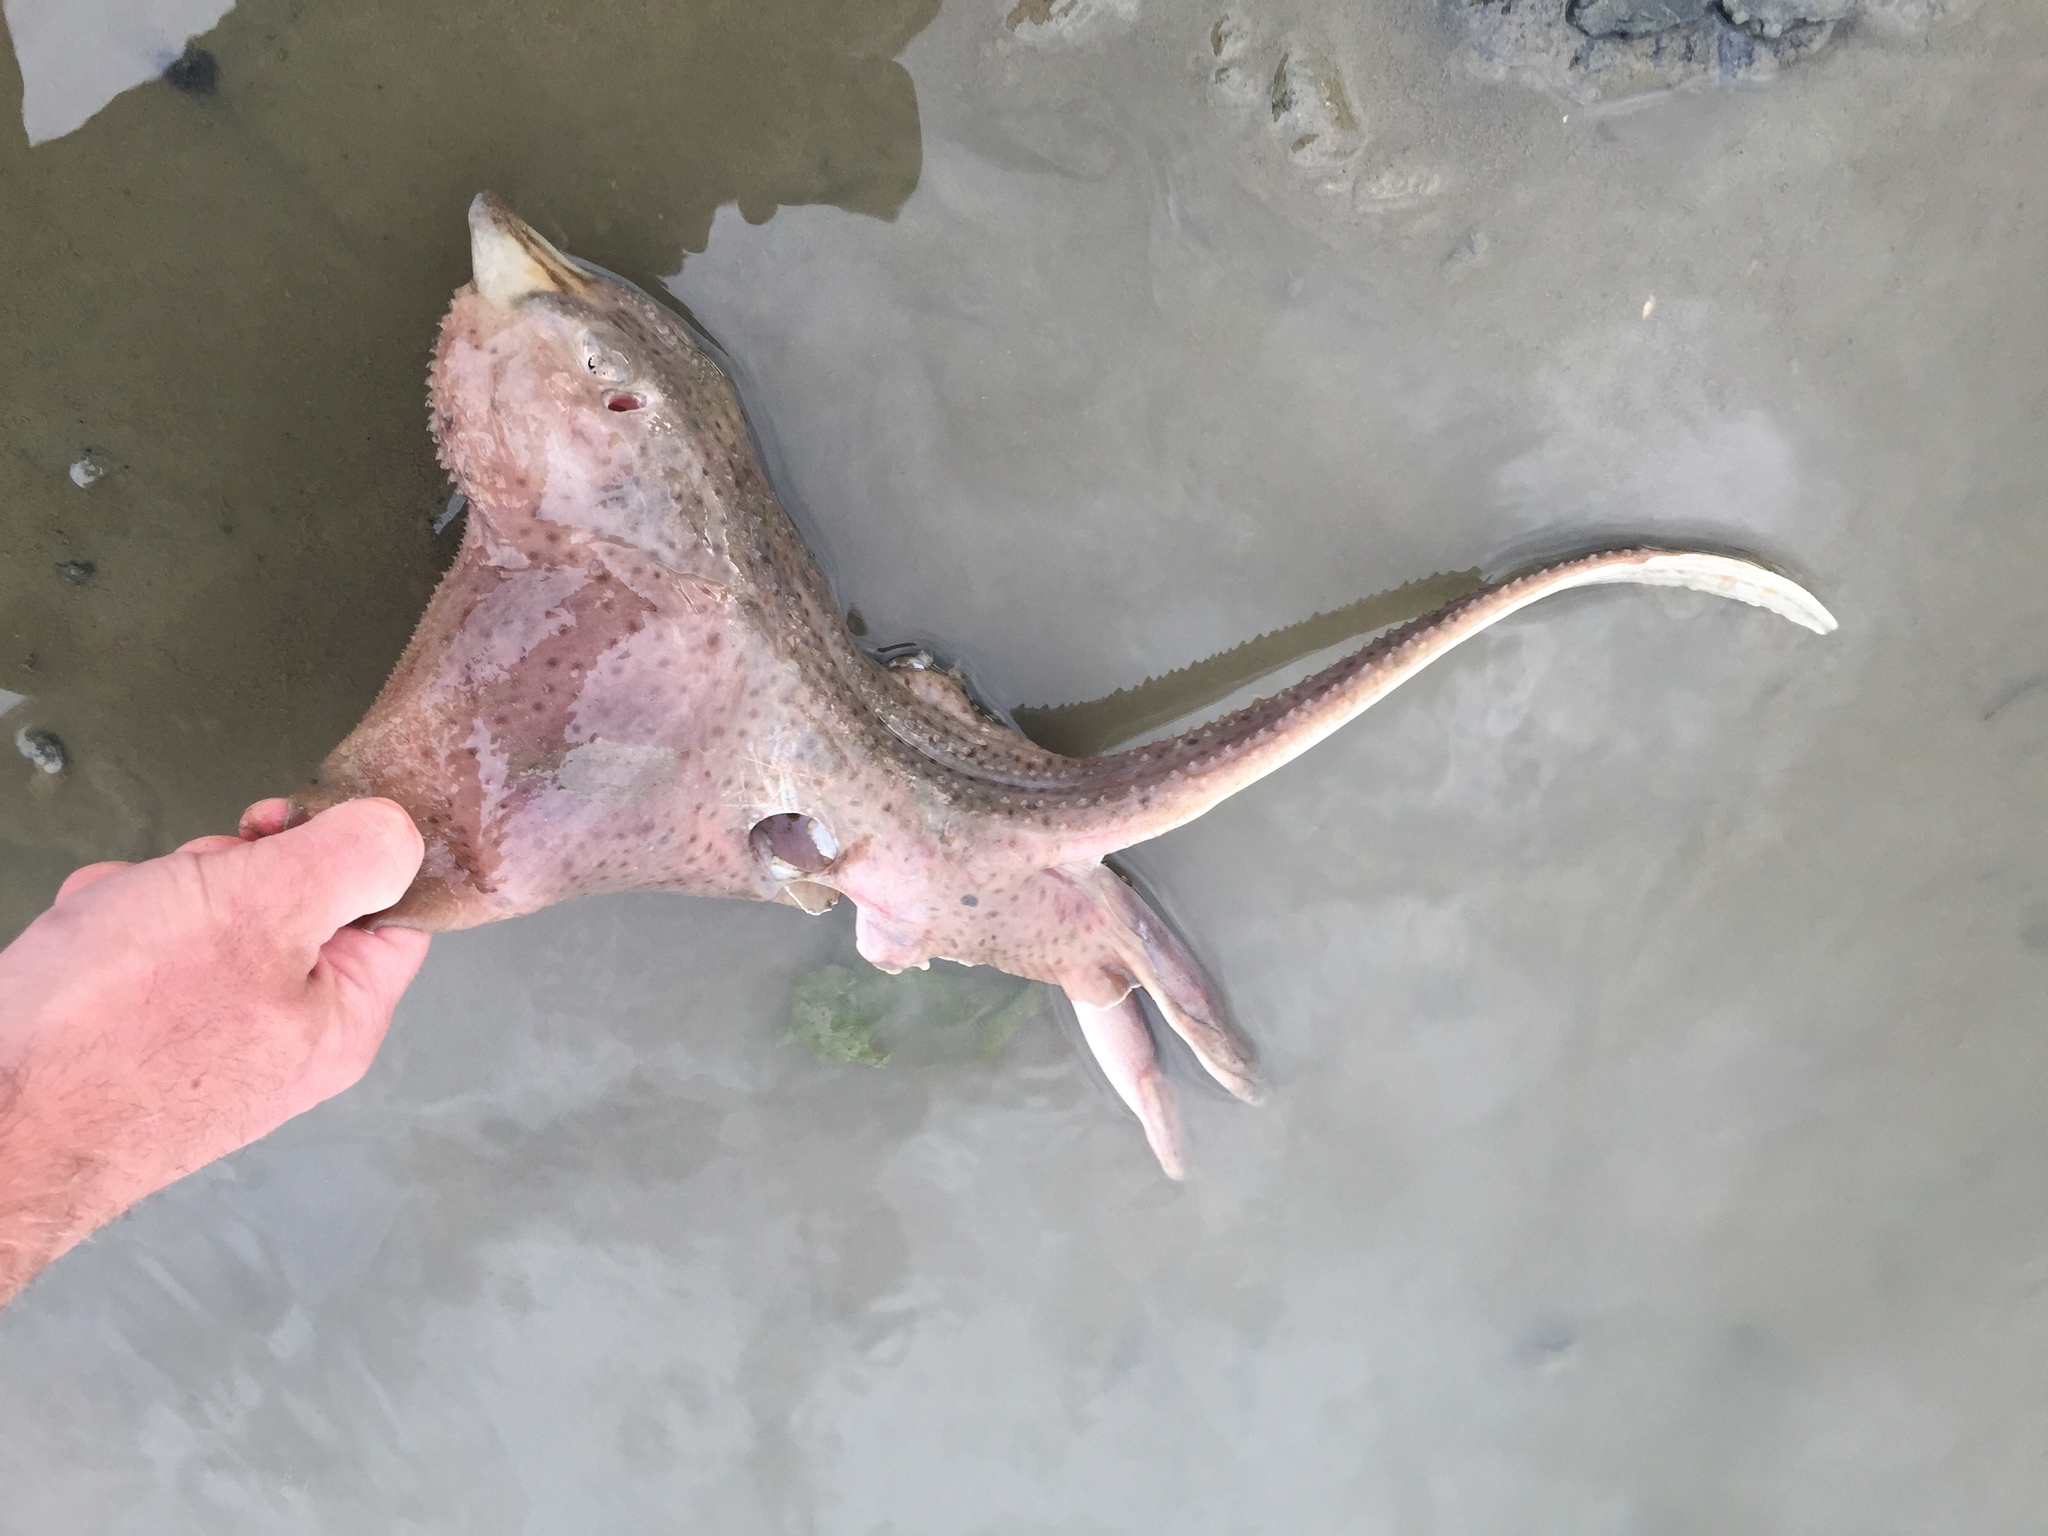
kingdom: Animalia
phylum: Chordata
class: Elasmobranchii
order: Rajiformes
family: Rajidae
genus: Leucoraja
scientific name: Leucoraja erinacea
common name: Little skate
